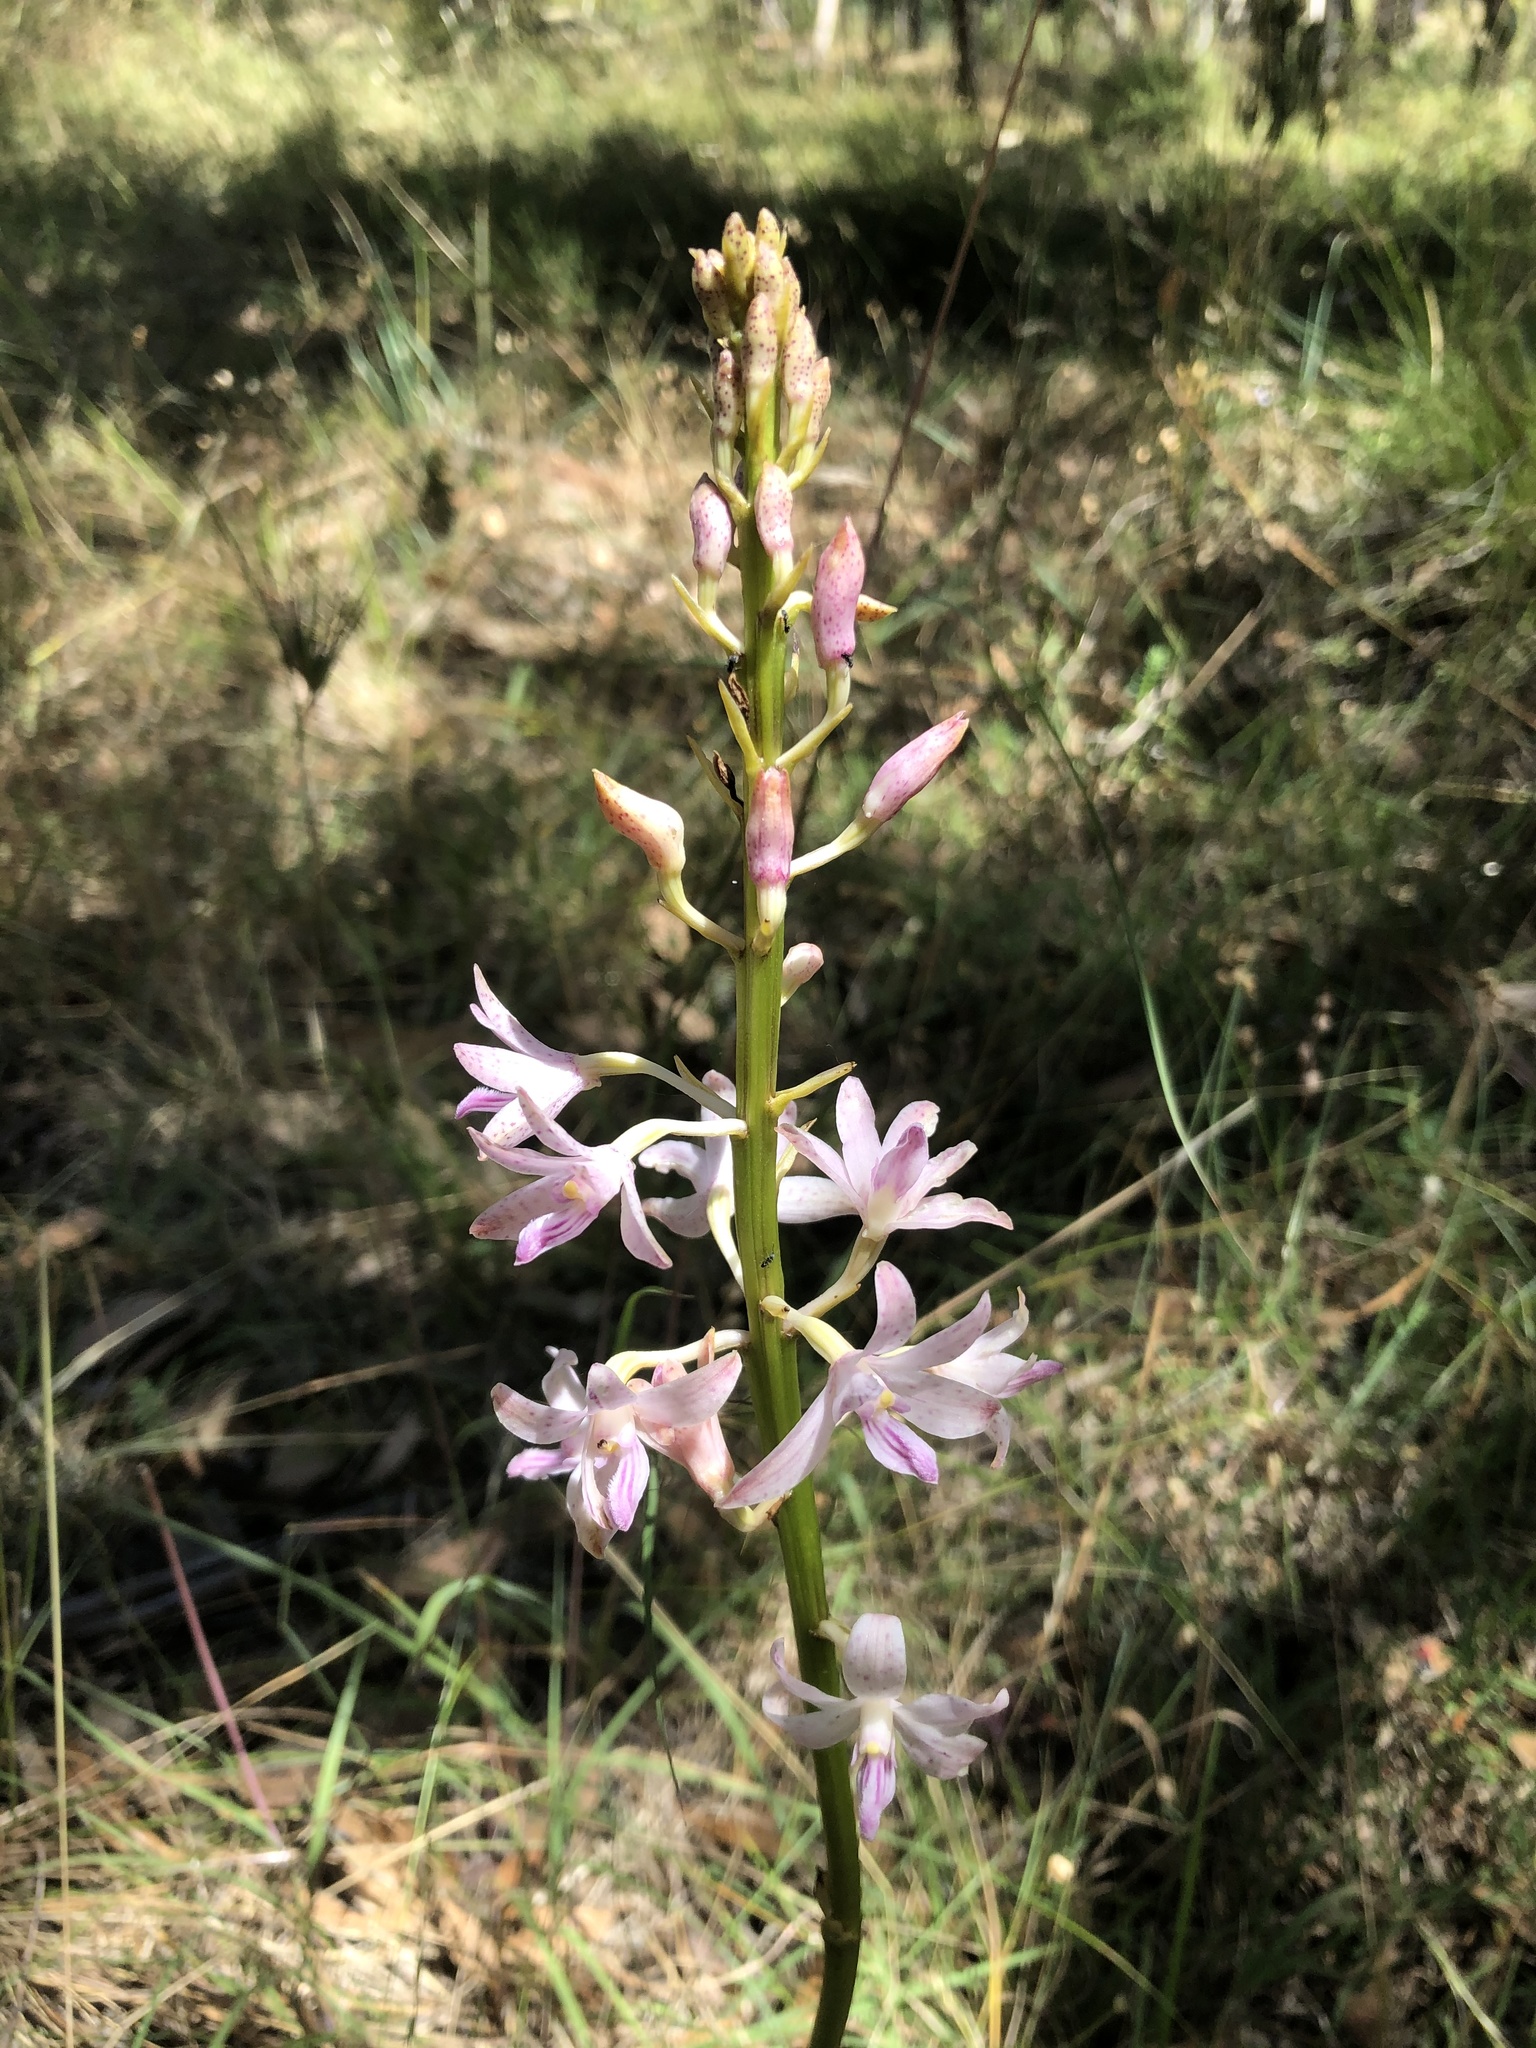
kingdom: Plantae
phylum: Tracheophyta
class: Liliopsida
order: Asparagales
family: Orchidaceae
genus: Dipodium
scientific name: Dipodium roseum
